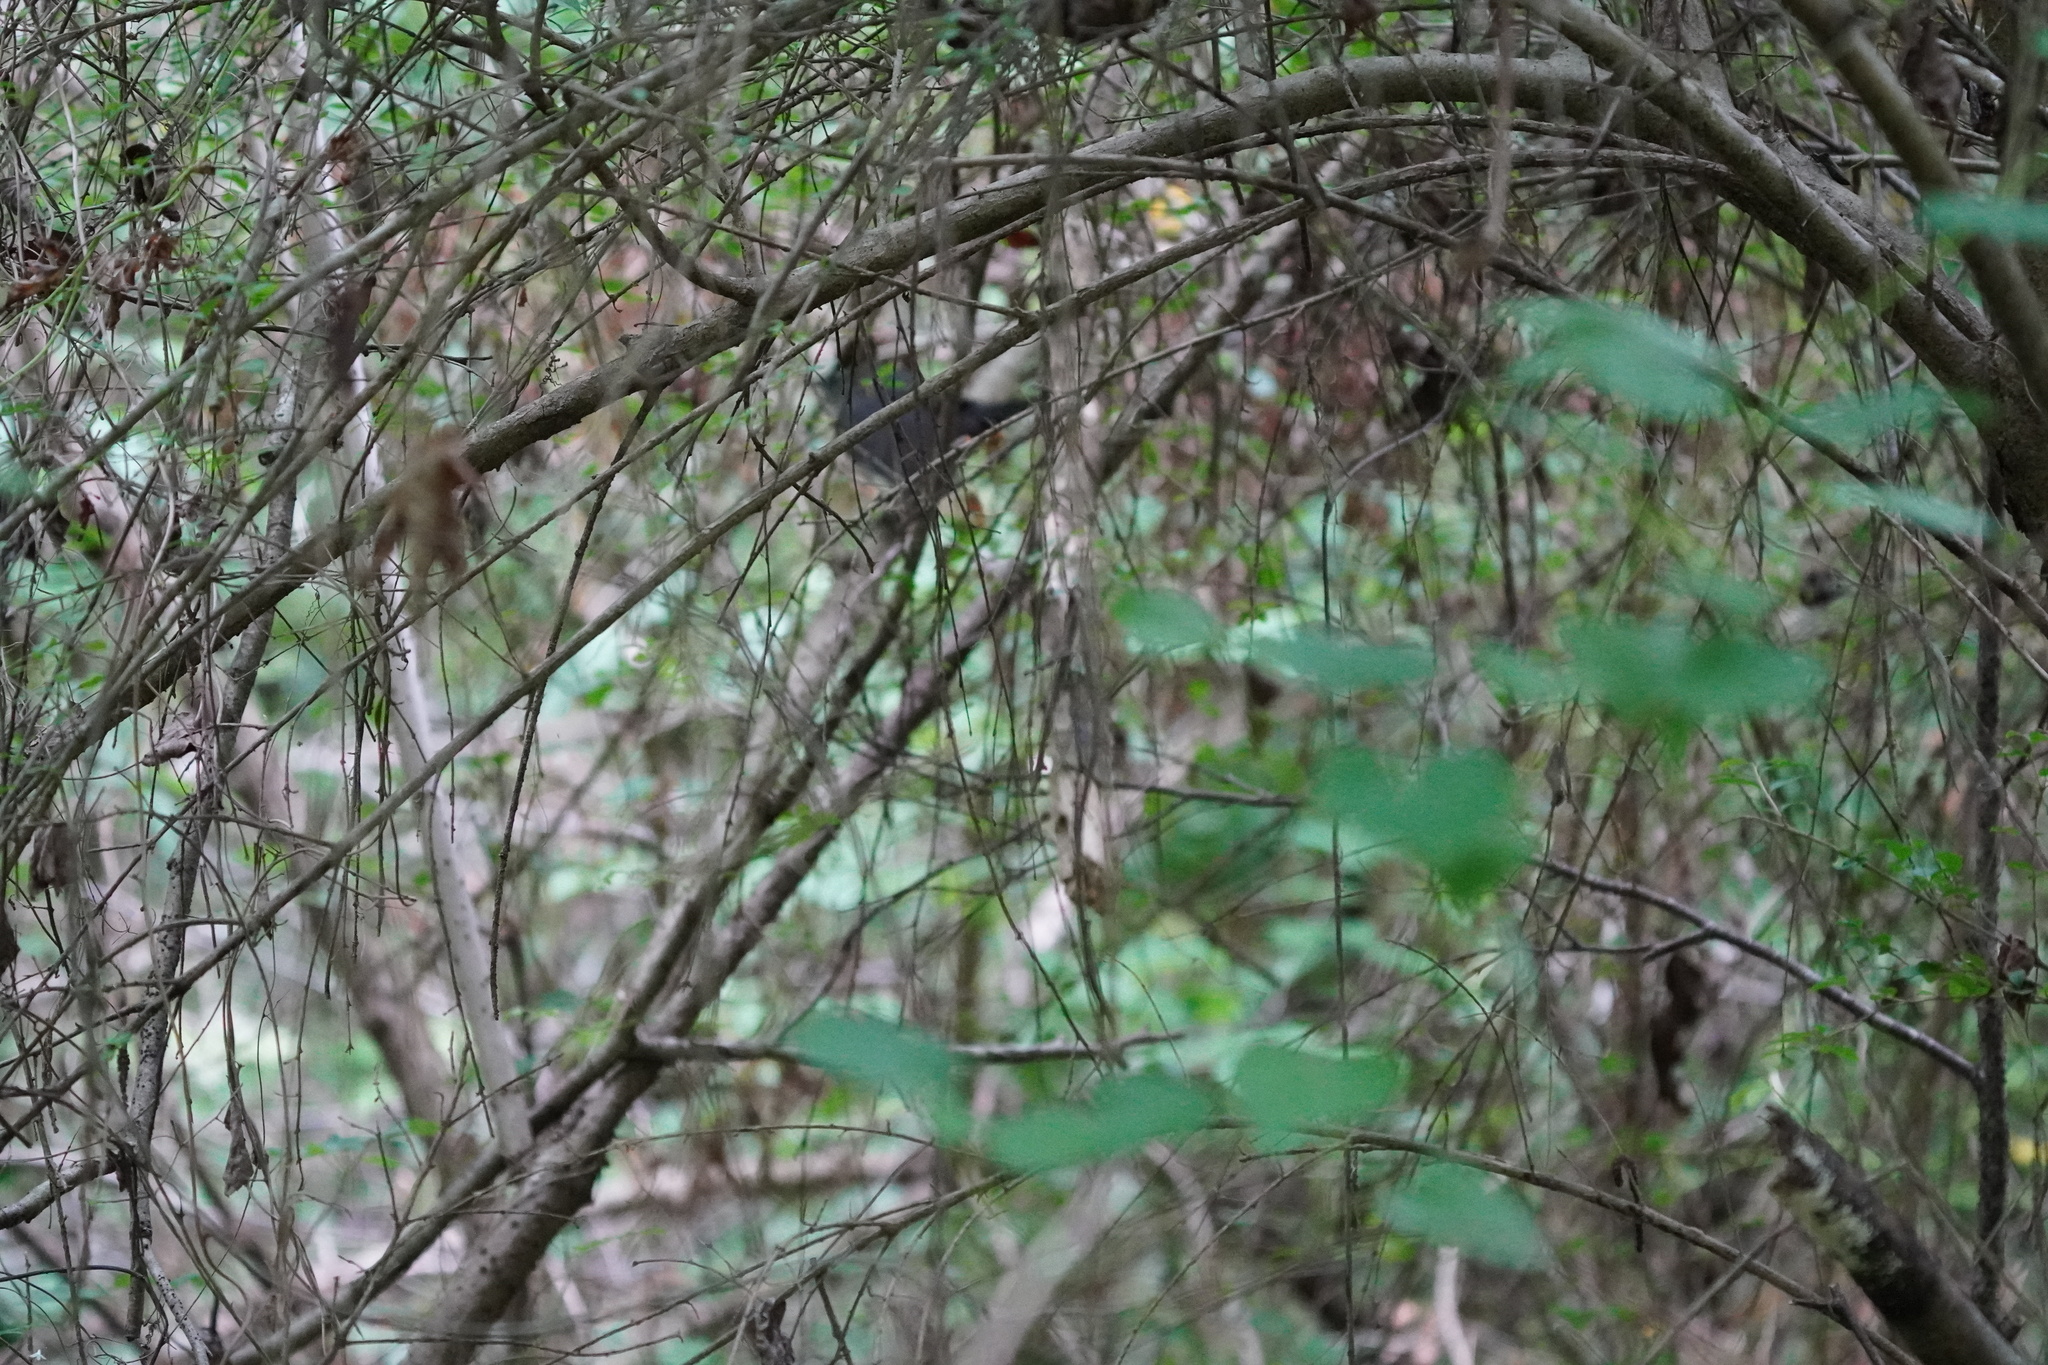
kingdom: Animalia
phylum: Chordata
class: Aves
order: Passeriformes
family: Mimidae
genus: Dumetella
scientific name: Dumetella carolinensis
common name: Gray catbird
